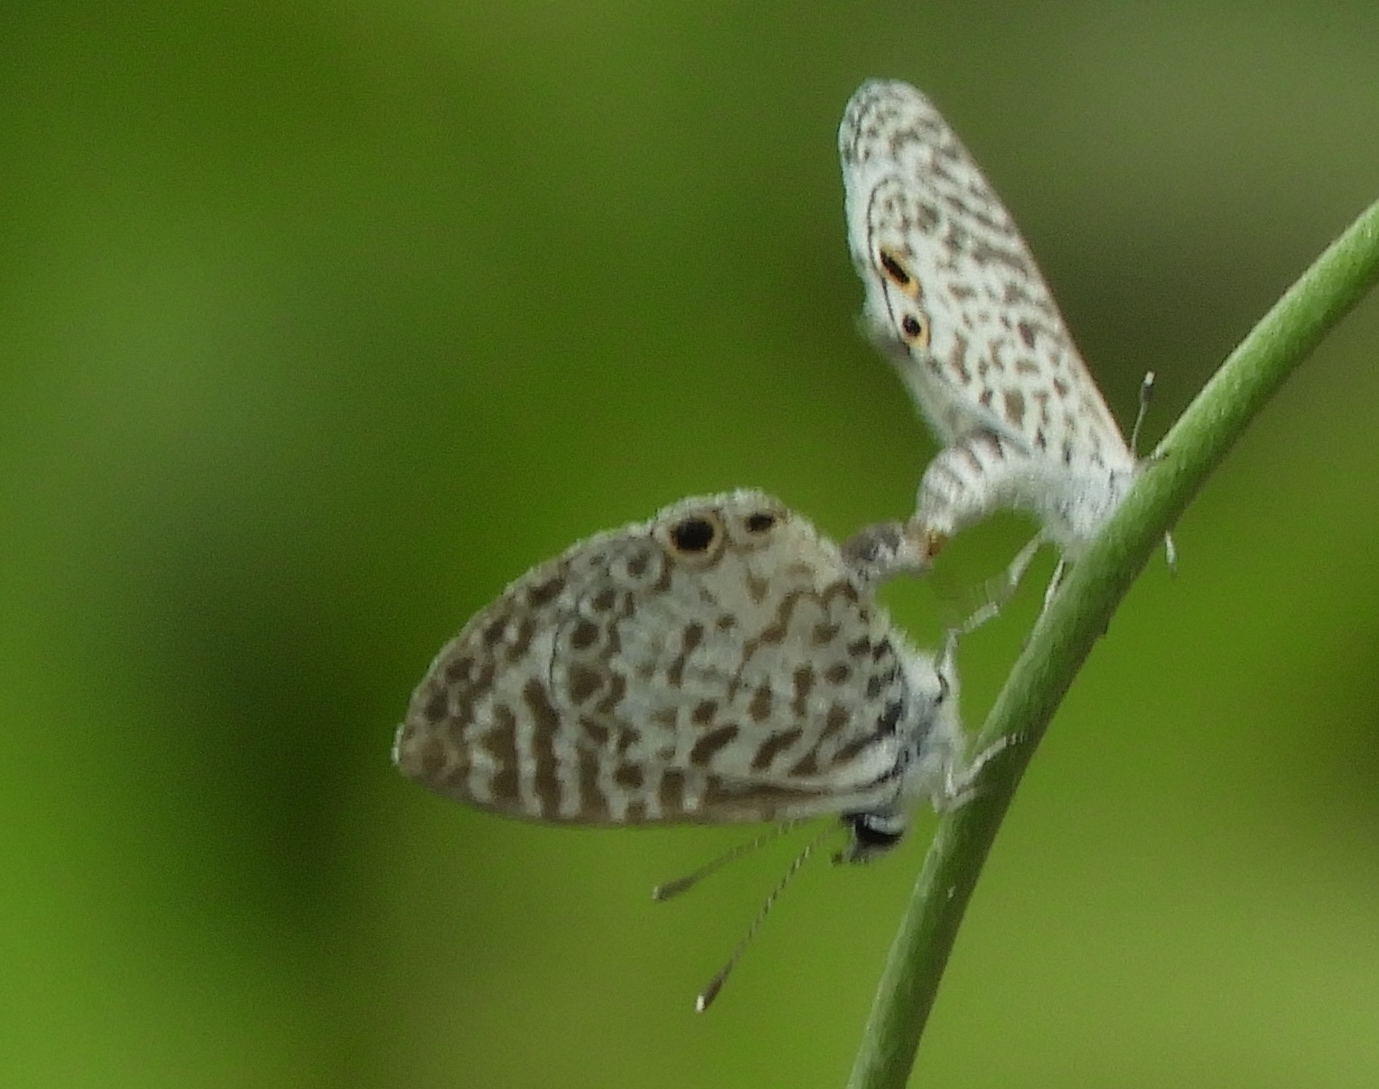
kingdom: Animalia
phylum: Arthropoda
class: Insecta
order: Lepidoptera
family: Lycaenidae
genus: Leptotes
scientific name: Leptotes theonus
